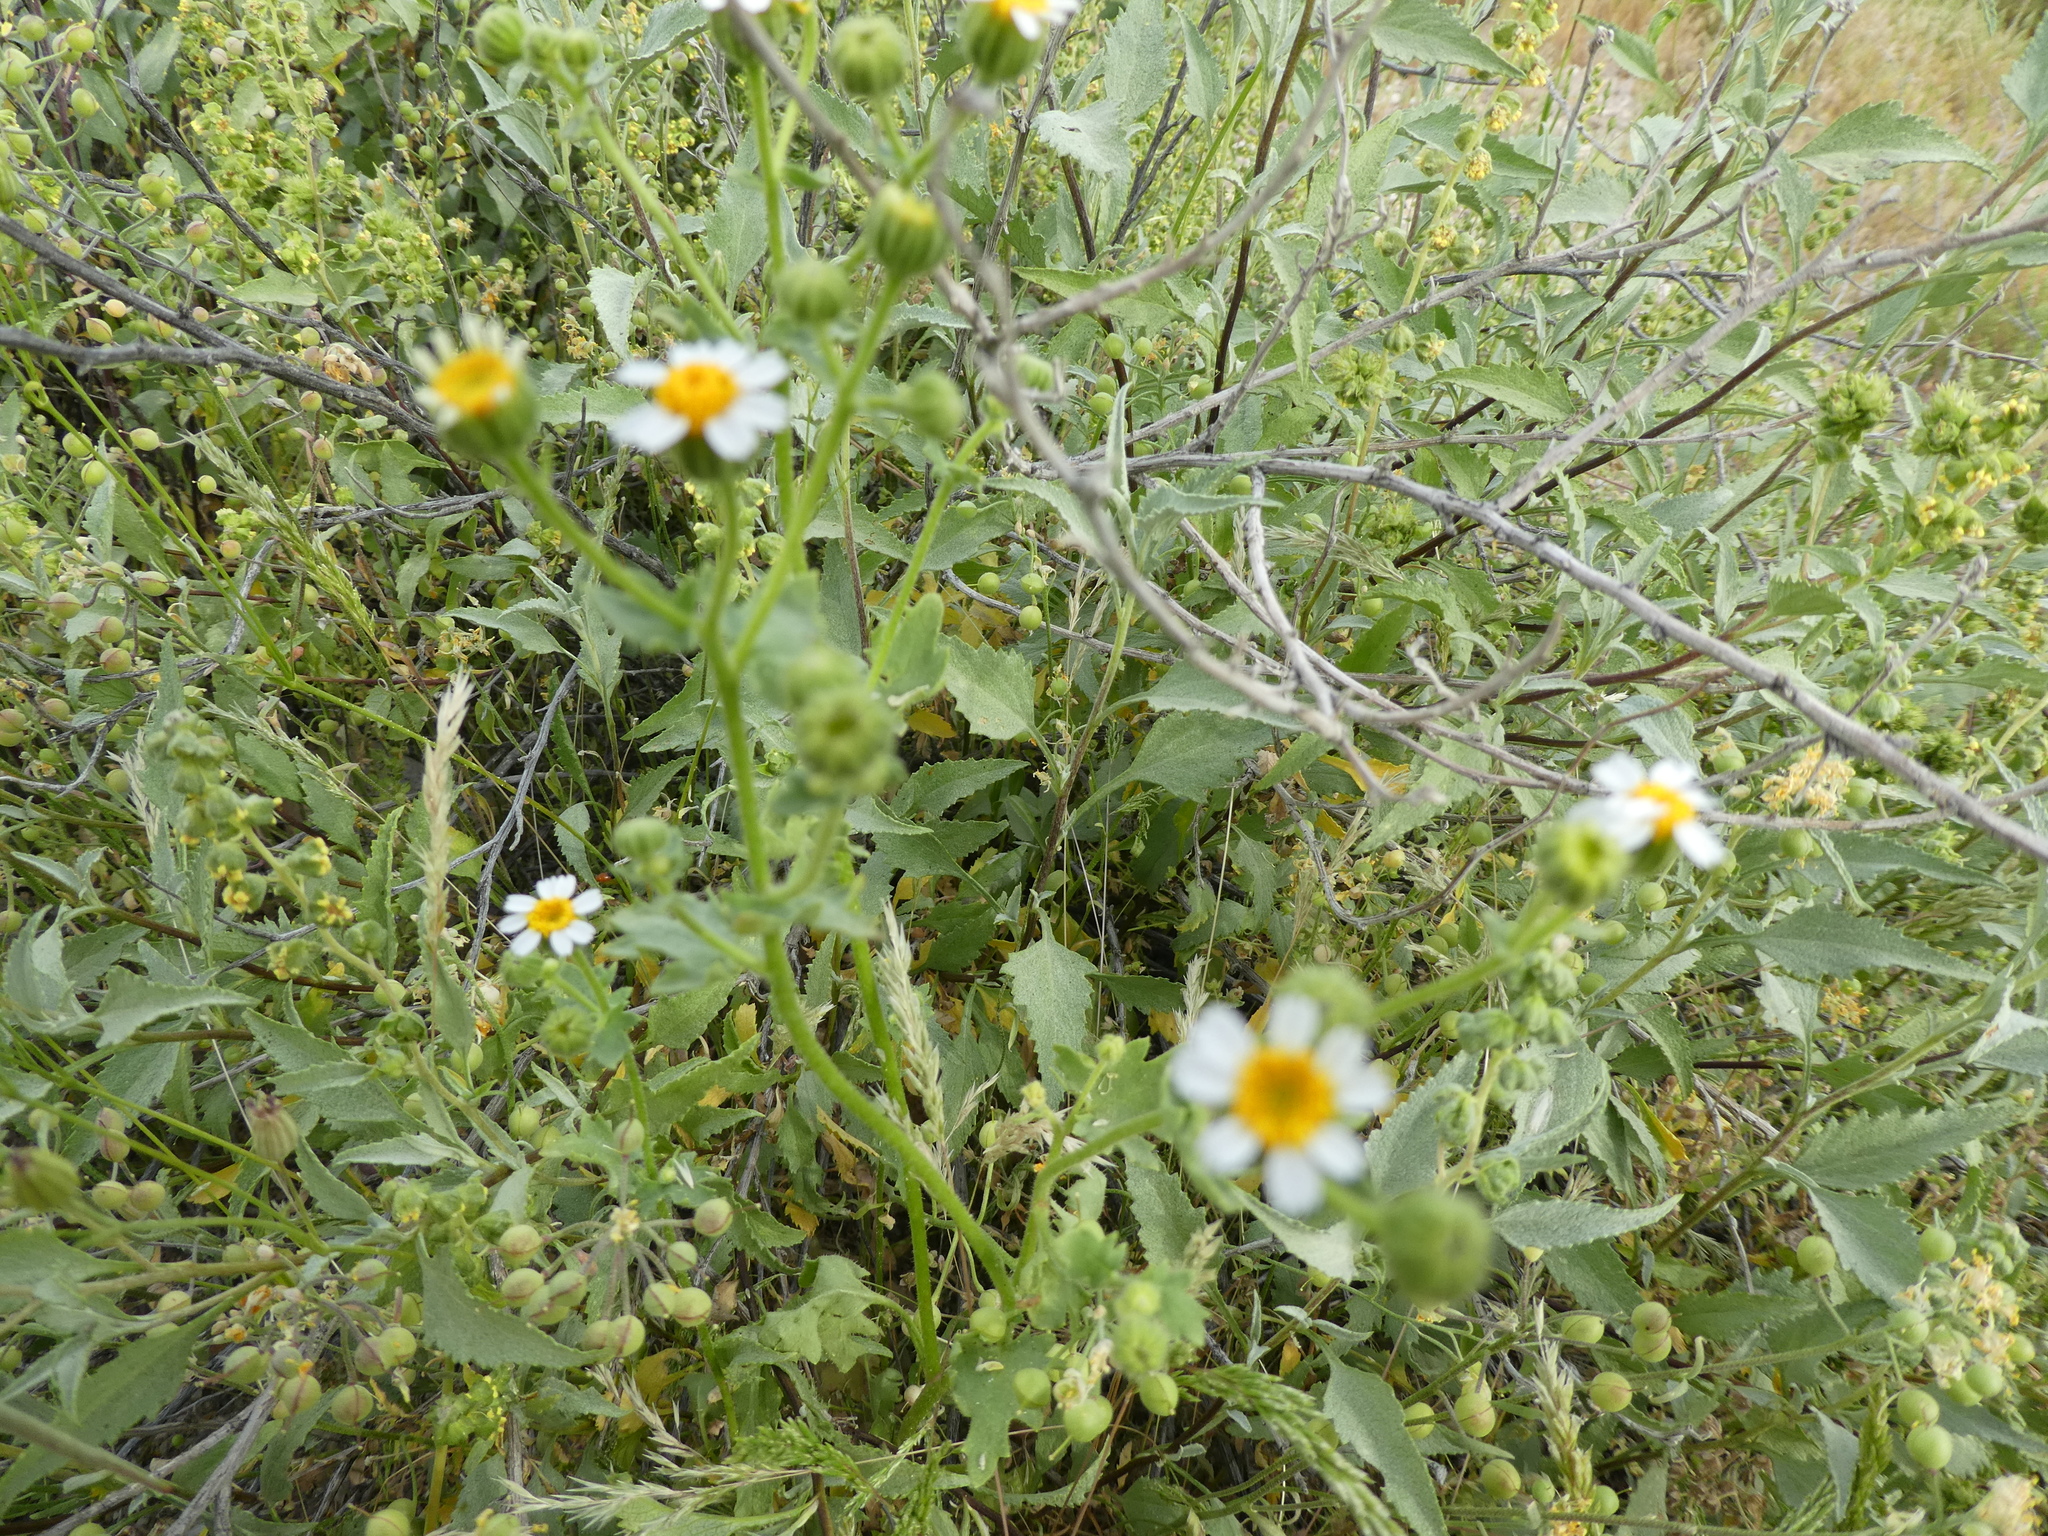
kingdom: Plantae
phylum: Tracheophyta
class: Magnoliopsida
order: Asterales
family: Asteraceae
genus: Laphamia
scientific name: Laphamia emoryi
